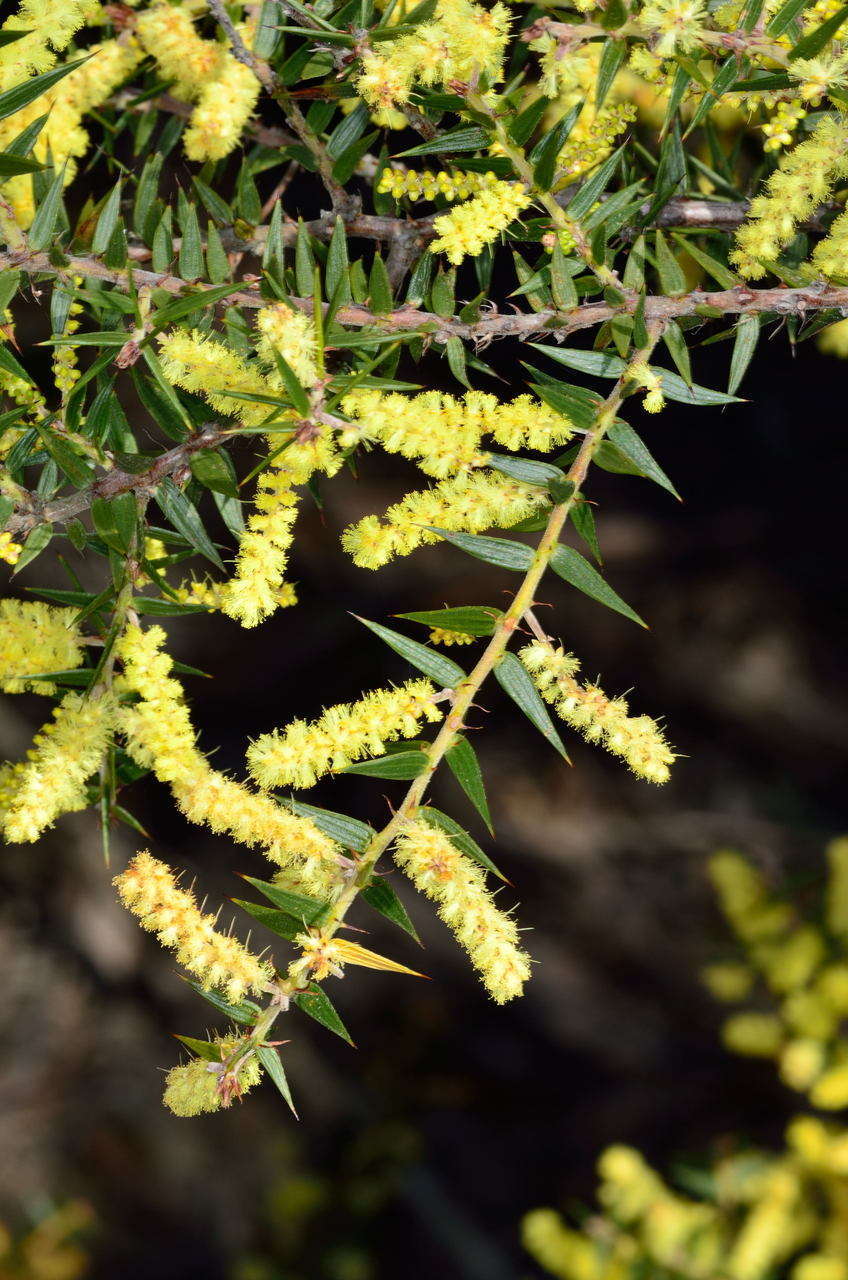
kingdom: Plantae
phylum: Tracheophyta
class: Magnoliopsida
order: Fabales
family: Fabaceae
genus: Acacia
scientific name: Acacia oxycedrus
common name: Spike wattle
